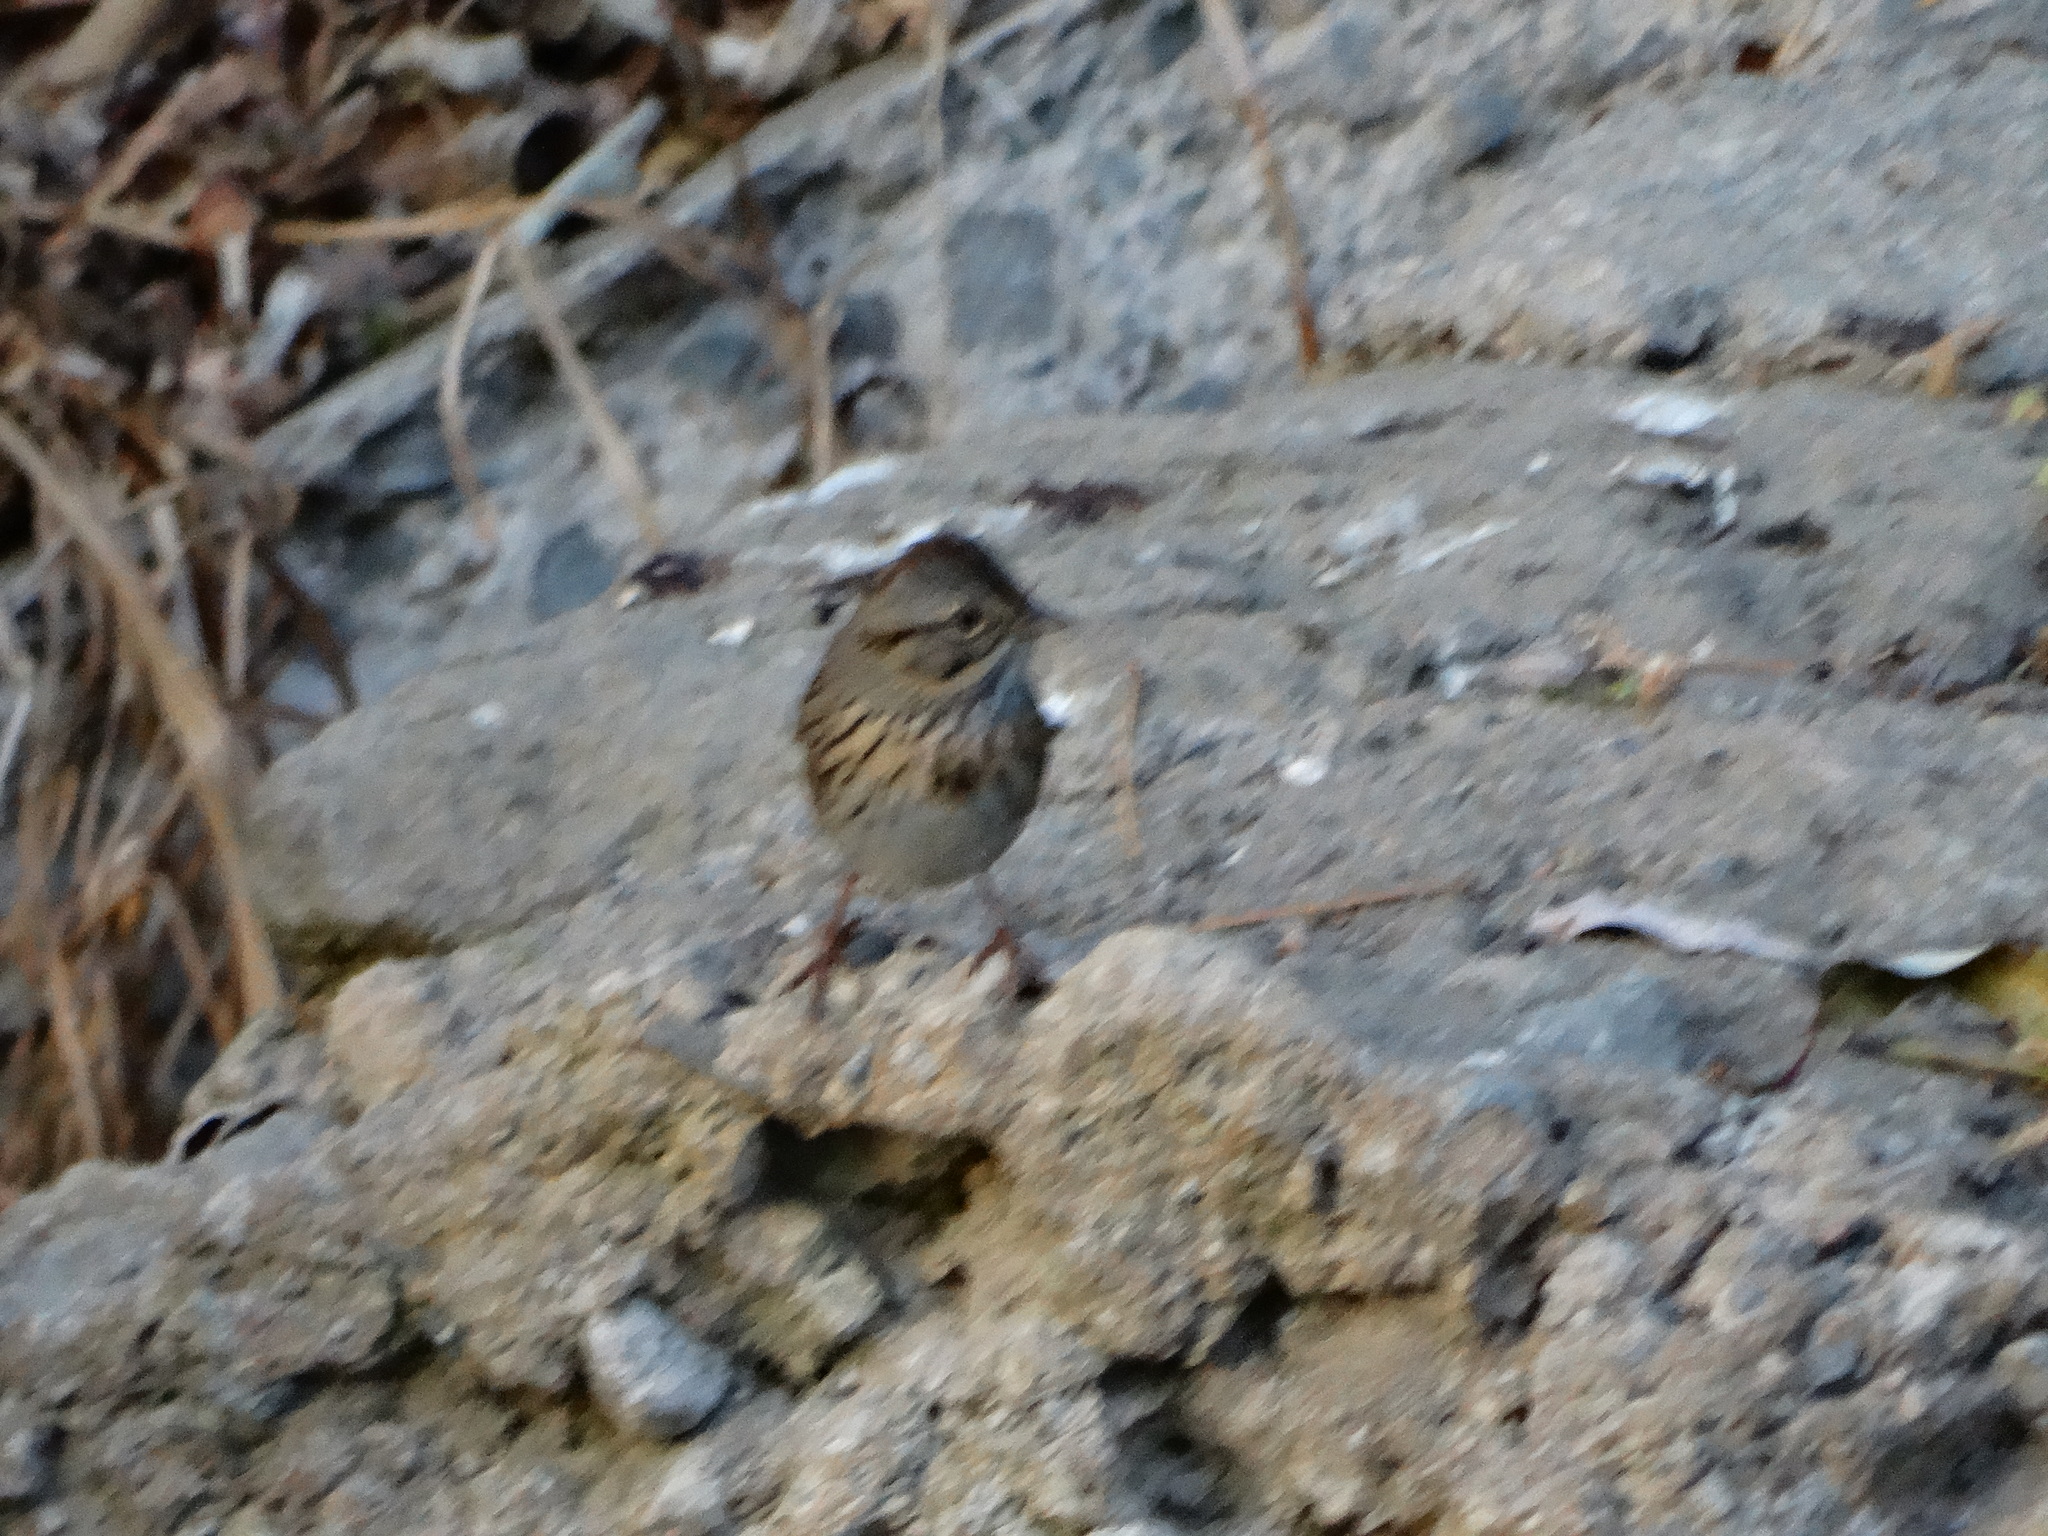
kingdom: Animalia
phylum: Chordata
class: Aves
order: Passeriformes
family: Passerellidae
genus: Melospiza
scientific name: Melospiza lincolnii
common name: Lincoln's sparrow
